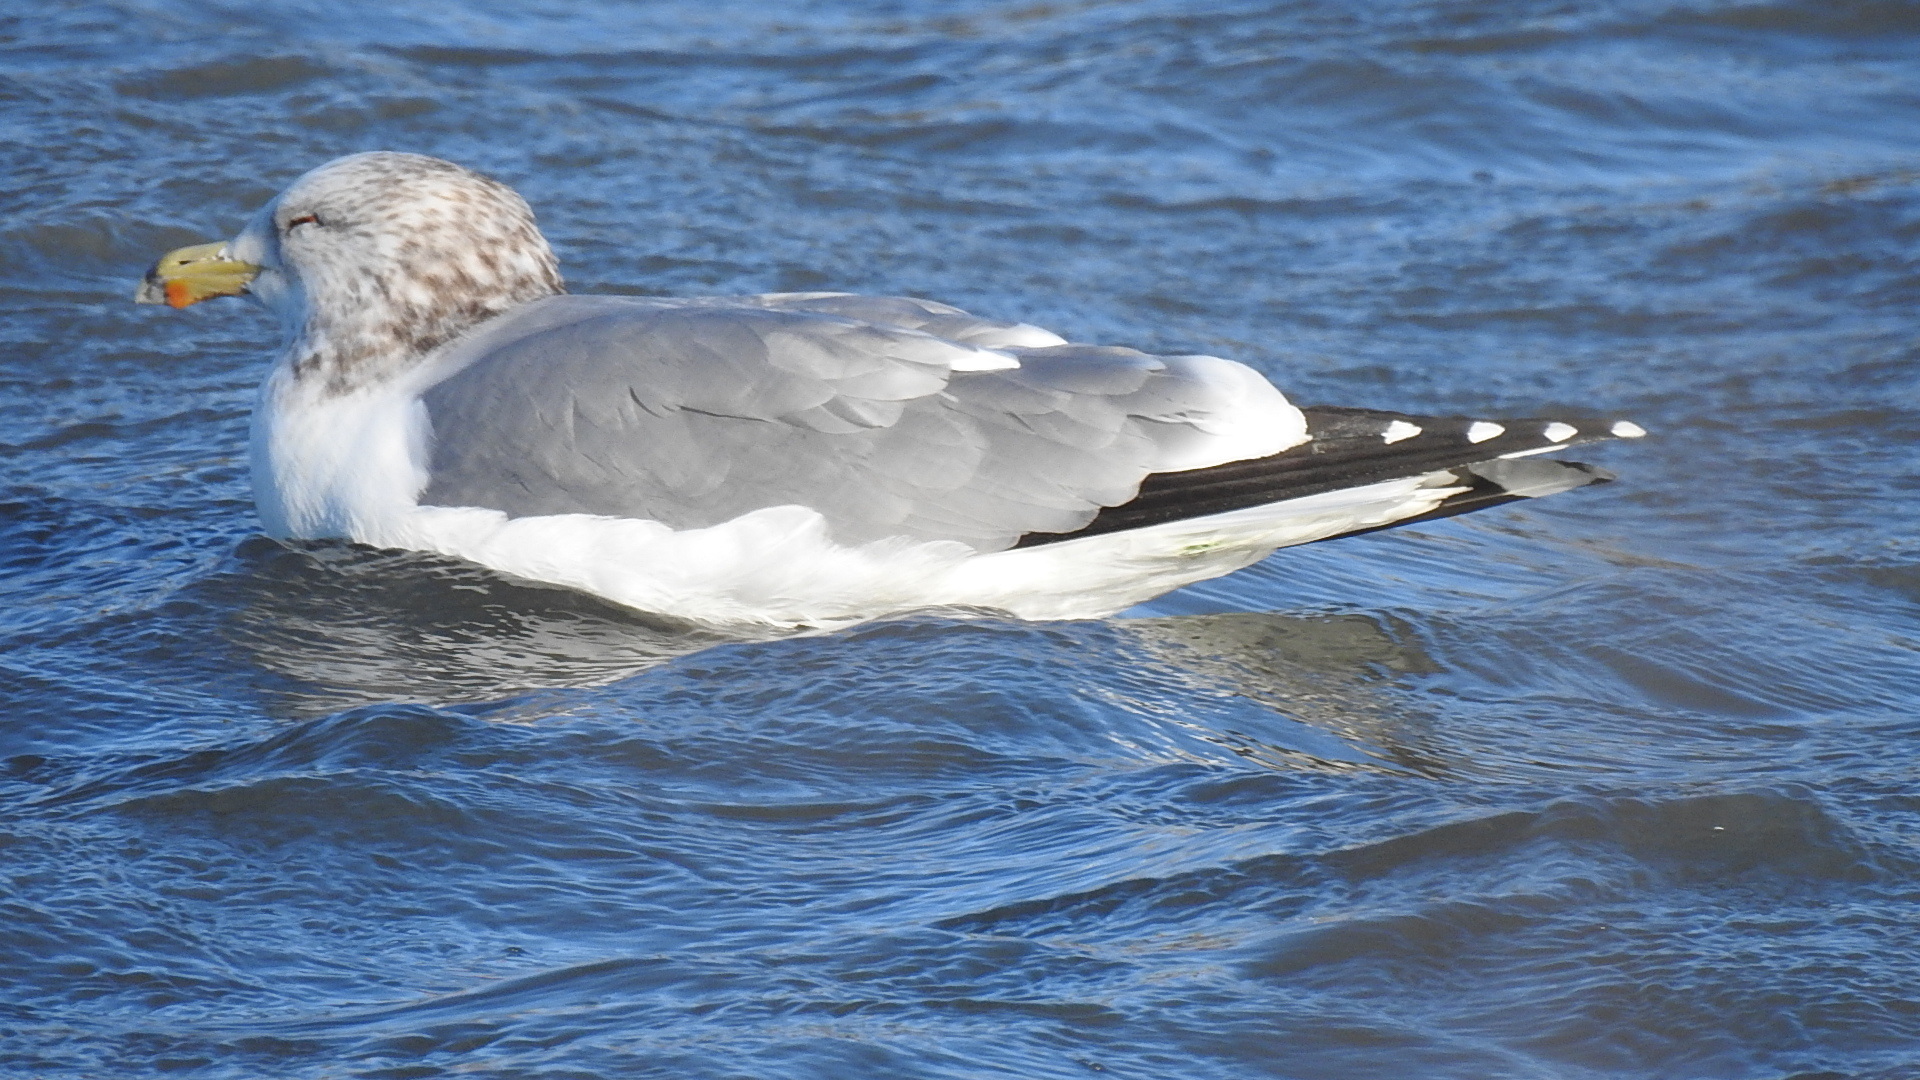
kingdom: Animalia
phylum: Chordata
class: Aves
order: Charadriiformes
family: Laridae
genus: Larus
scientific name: Larus californicus
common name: California gull
